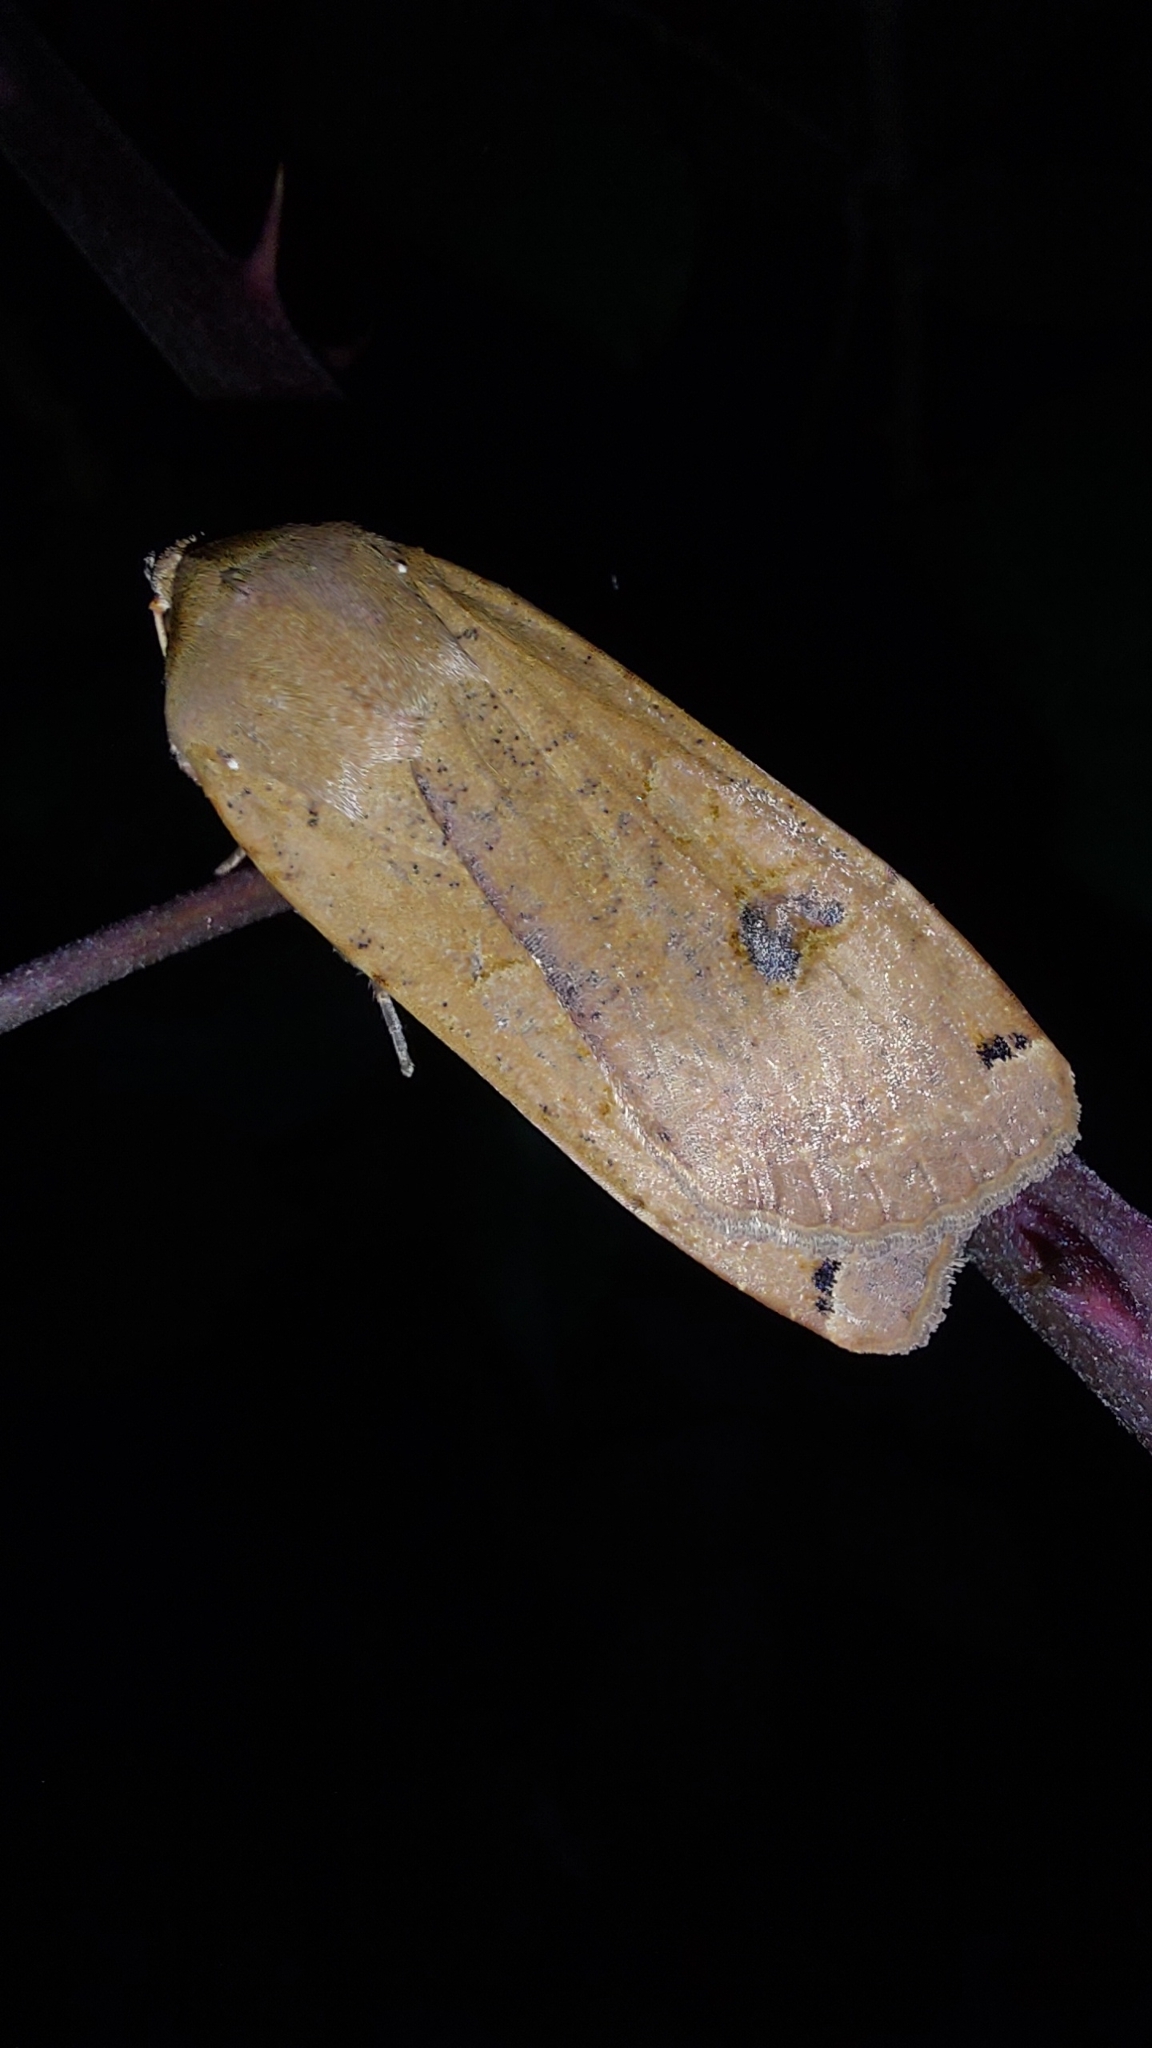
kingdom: Animalia
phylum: Arthropoda
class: Insecta
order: Lepidoptera
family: Noctuidae
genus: Noctua
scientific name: Noctua pronuba
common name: Large yellow underwing
